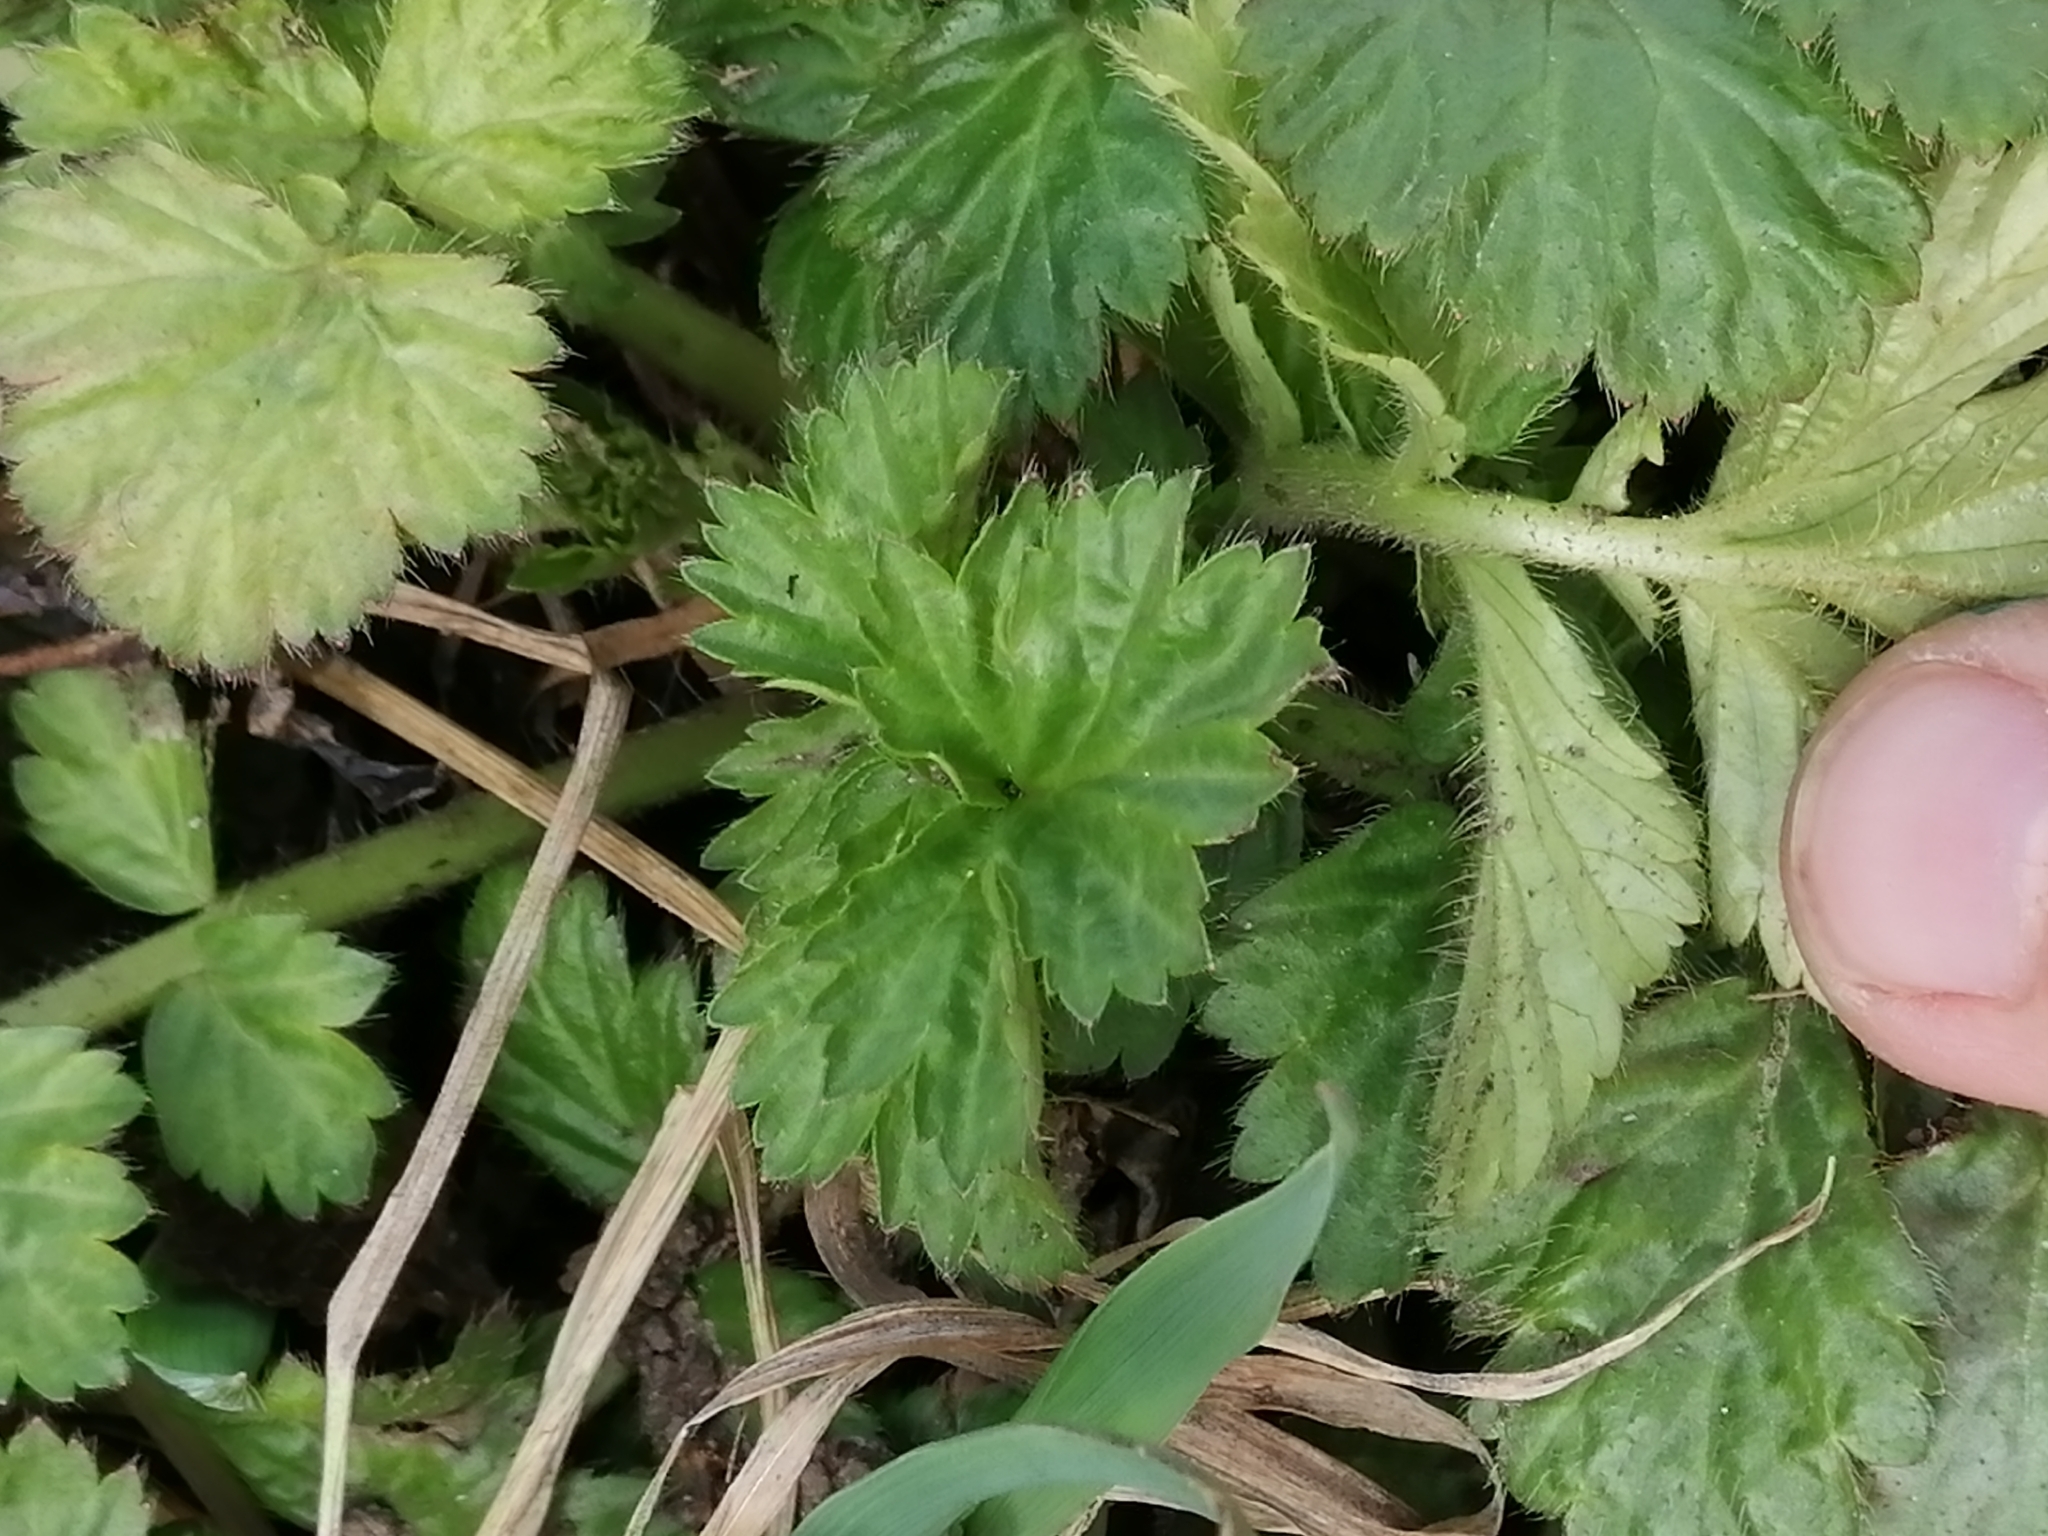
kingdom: Plantae
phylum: Tracheophyta
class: Magnoliopsida
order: Rosales
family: Rosaceae
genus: Geum
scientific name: Geum aleppicum
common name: Yellow avens
